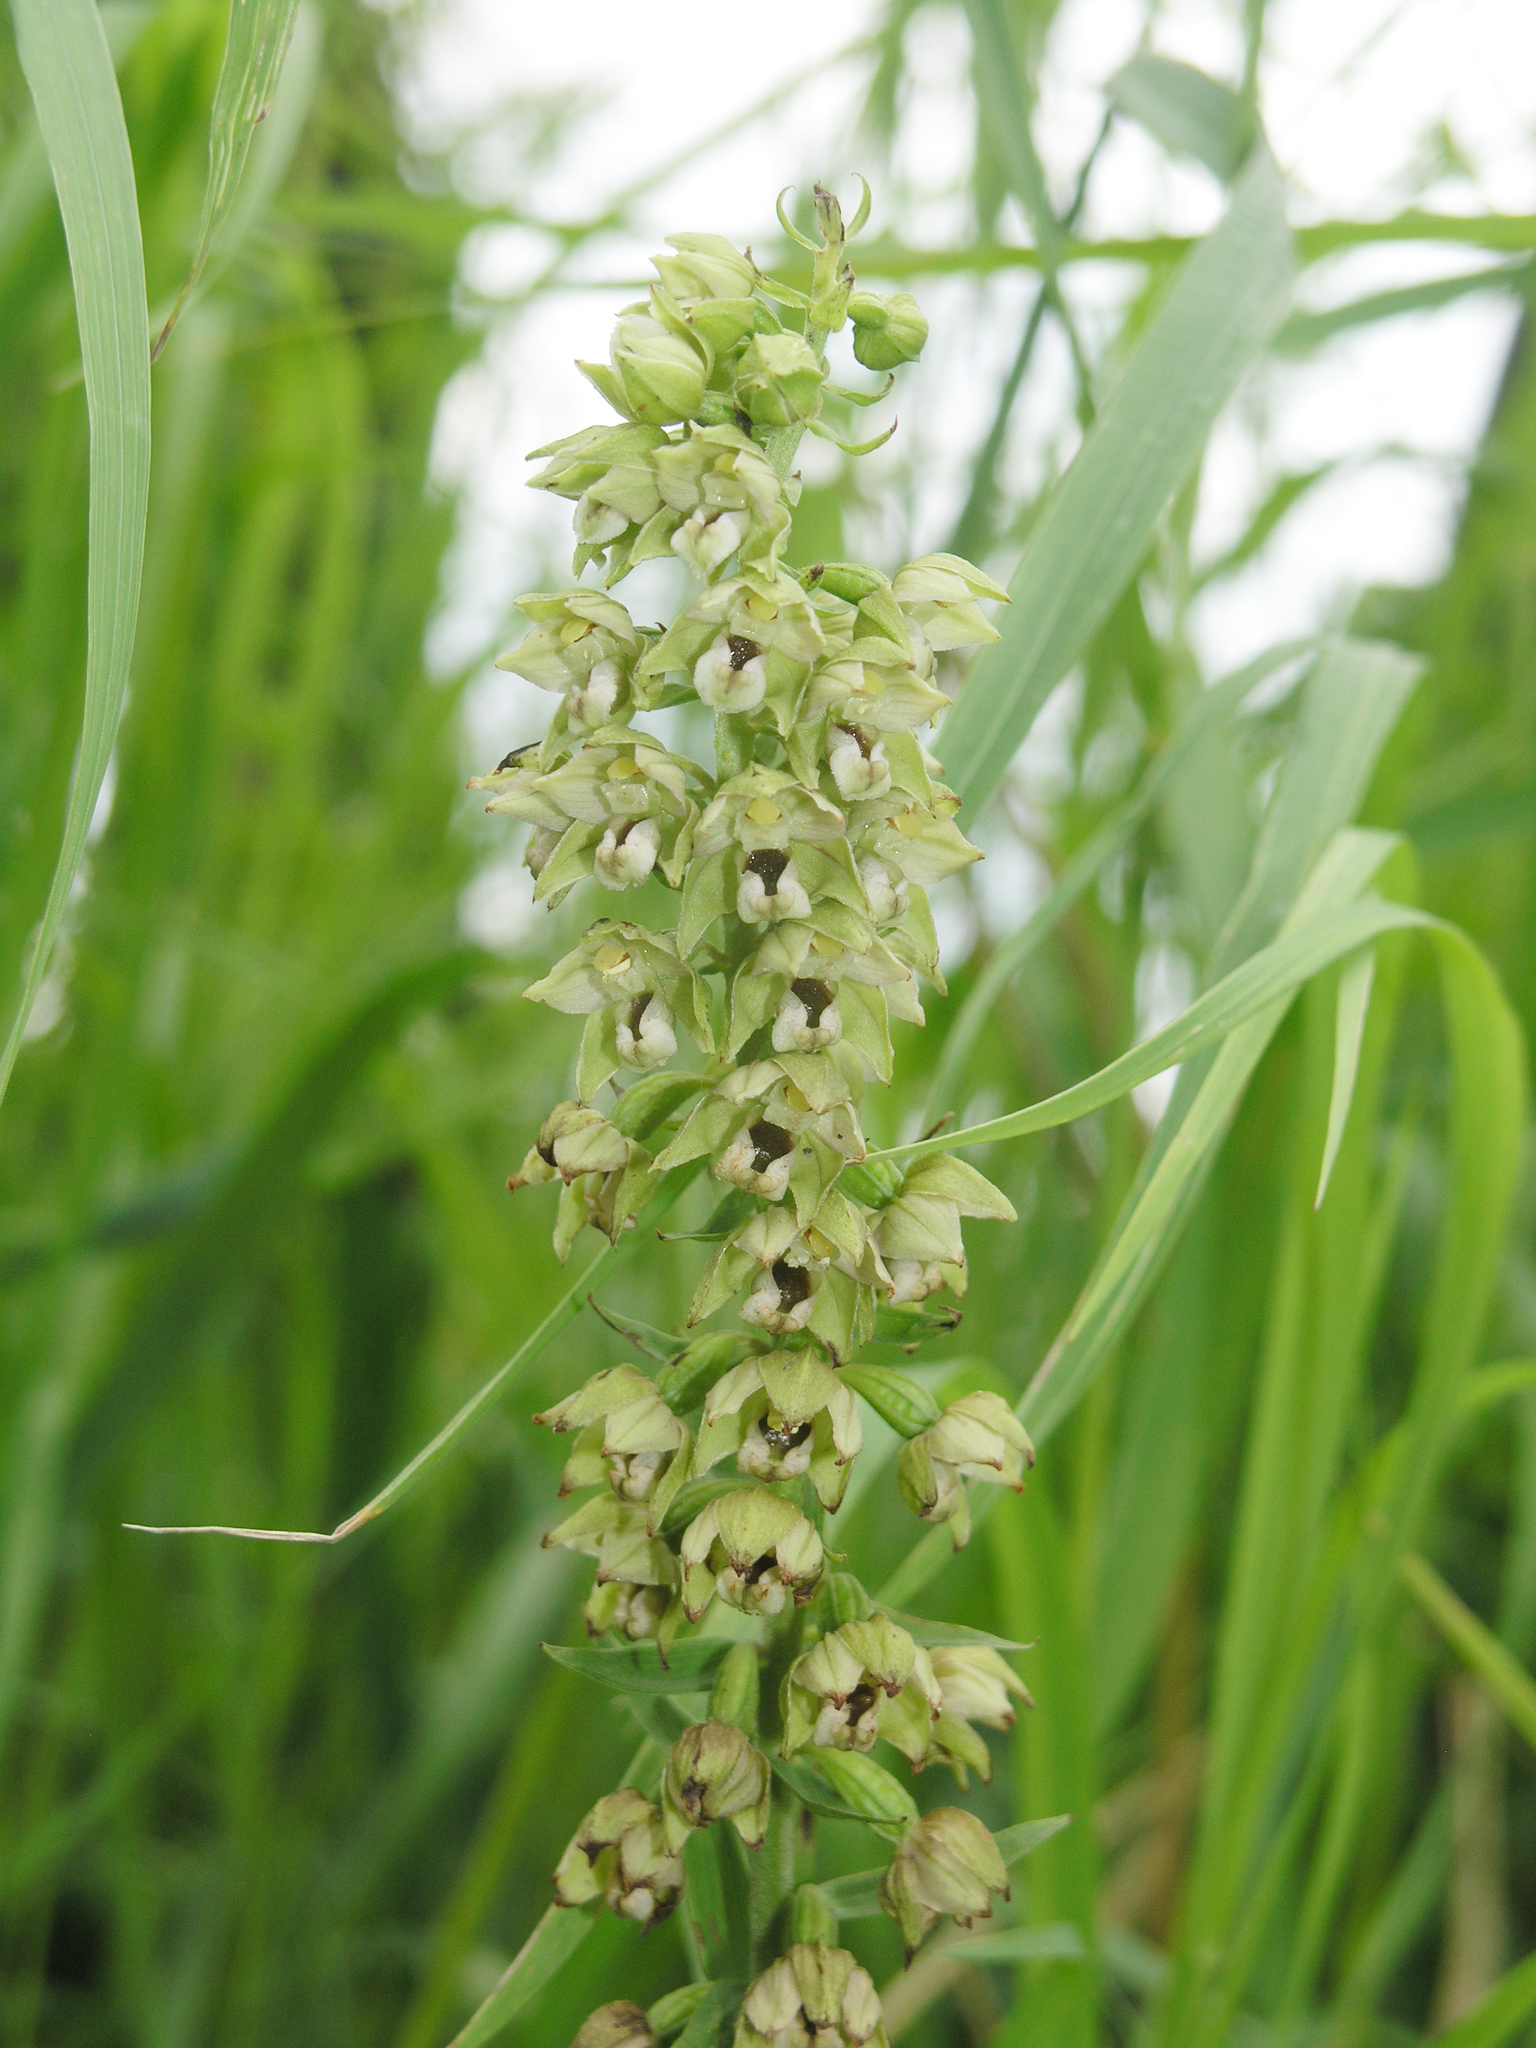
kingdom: Plantae
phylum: Tracheophyta
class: Liliopsida
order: Asparagales
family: Orchidaceae
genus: Epipactis
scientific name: Epipactis helleborine
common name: Broad-leaved helleborine
